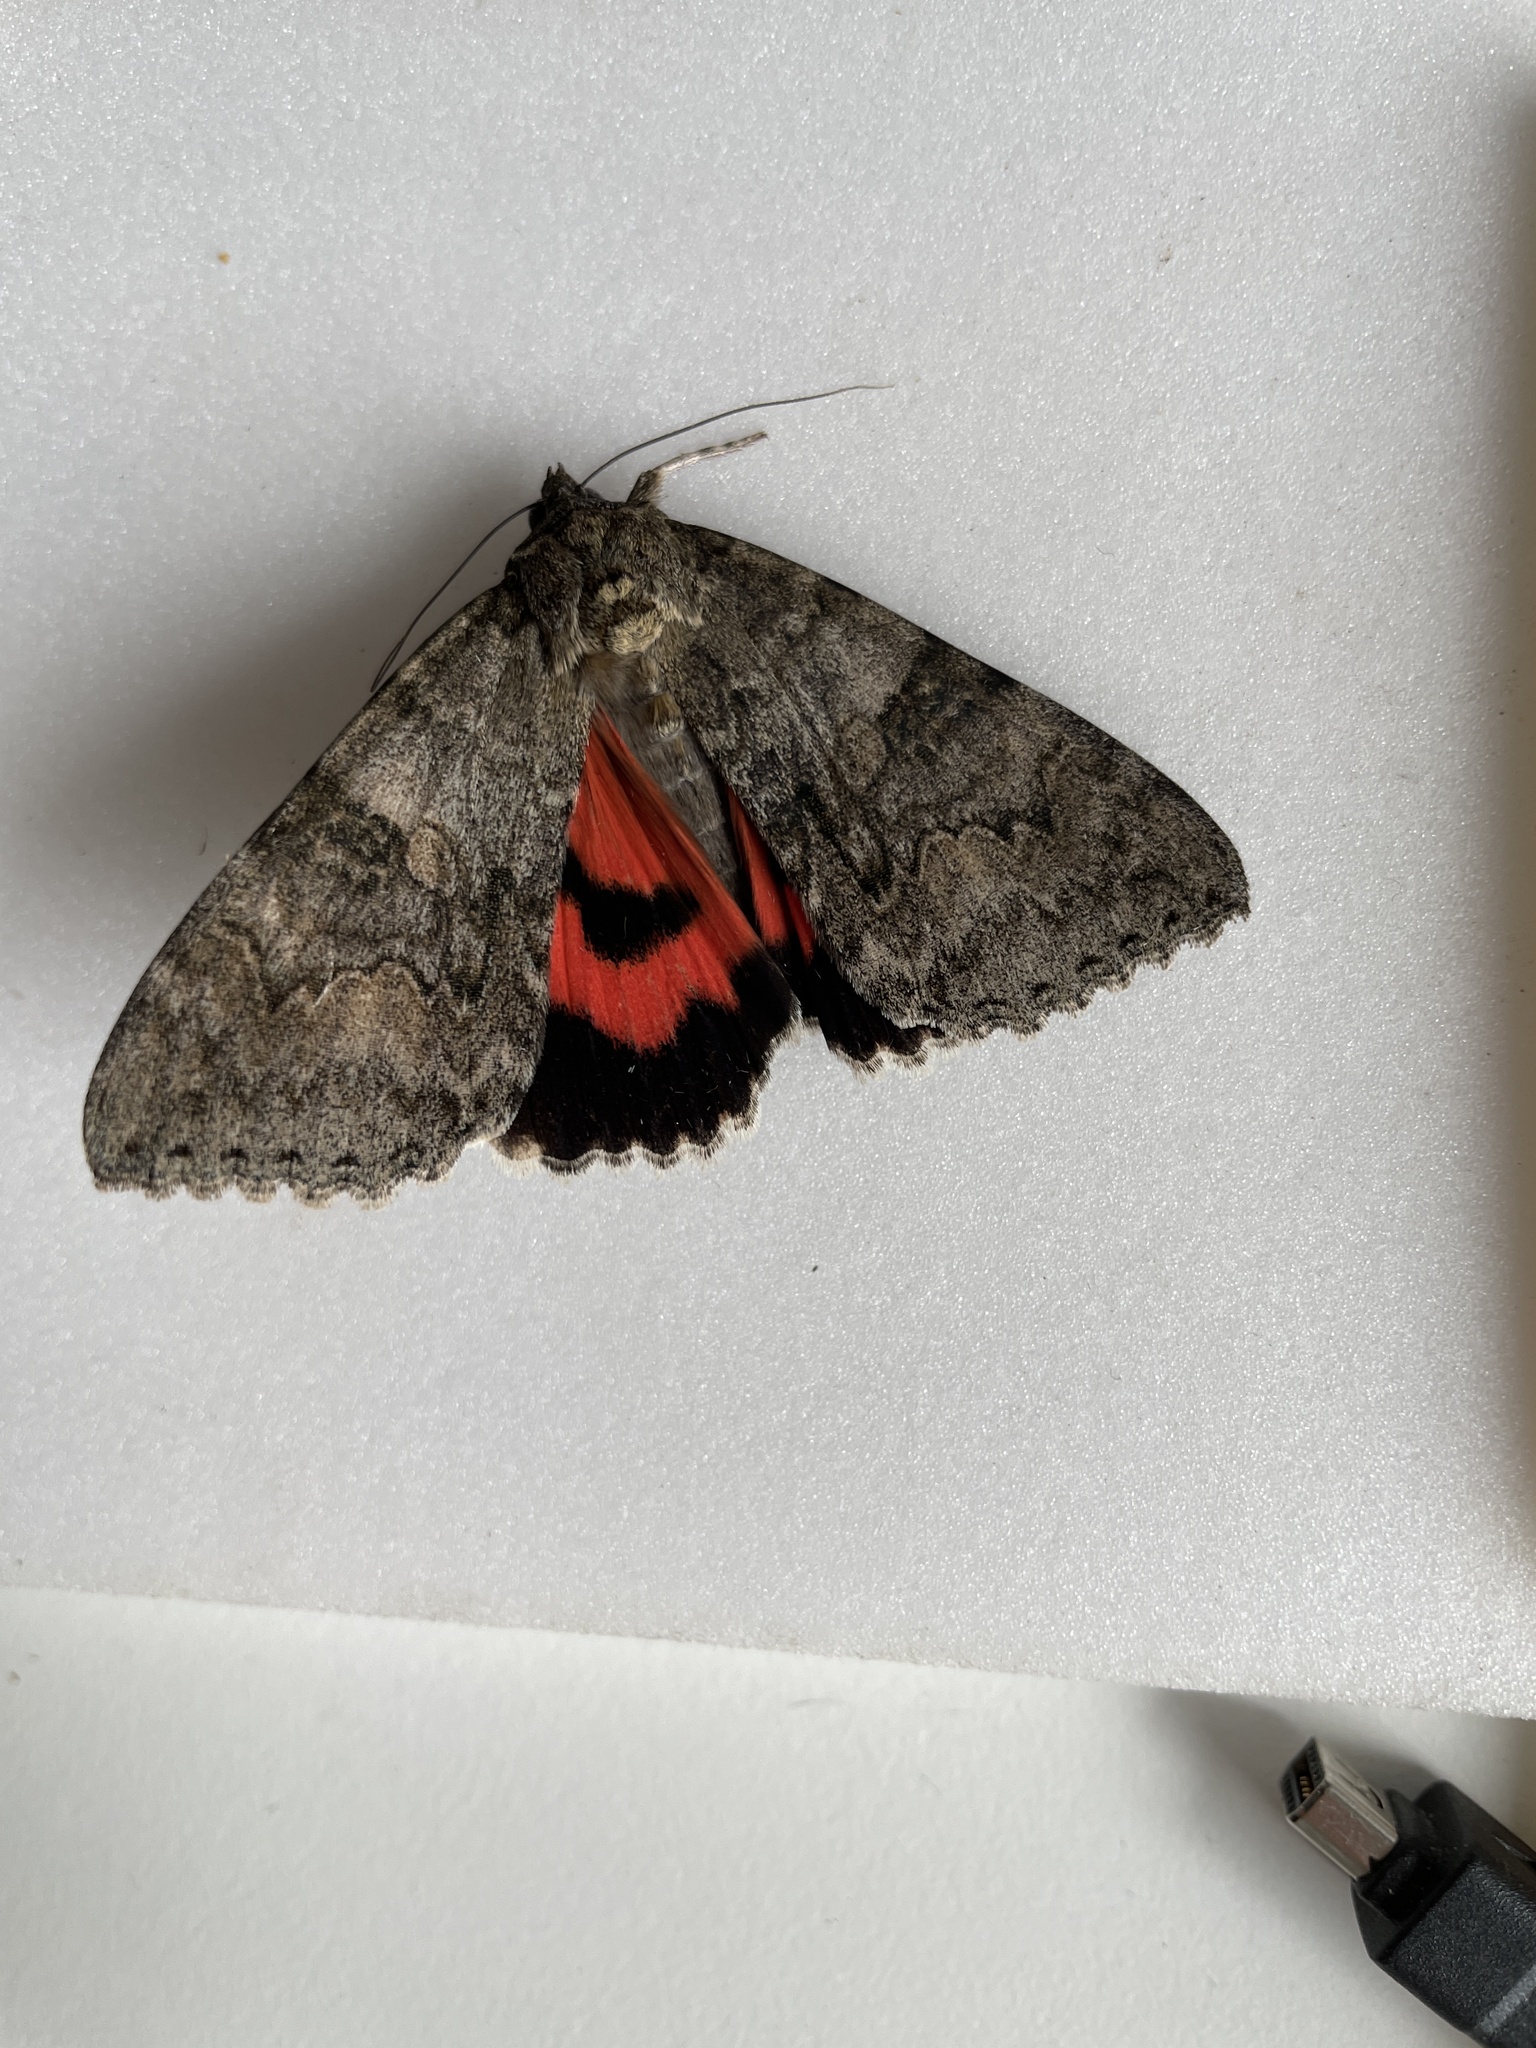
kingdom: Animalia
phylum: Arthropoda
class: Insecta
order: Lepidoptera
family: Erebidae
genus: Catocala
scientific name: Catocala nupta
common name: Red underwing
